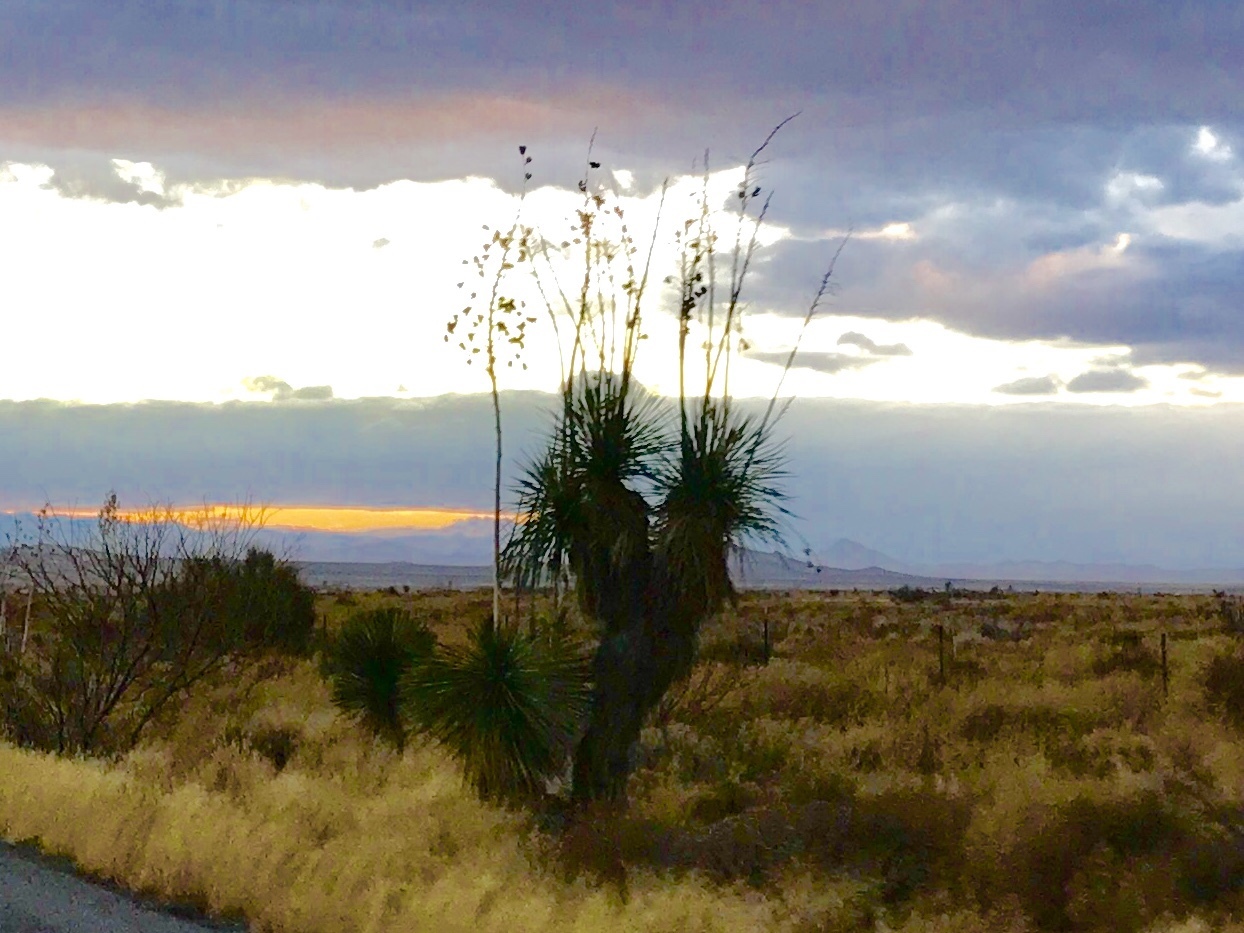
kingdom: Plantae
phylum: Tracheophyta
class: Liliopsida
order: Asparagales
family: Asparagaceae
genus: Yucca
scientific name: Yucca elata
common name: Palmella
